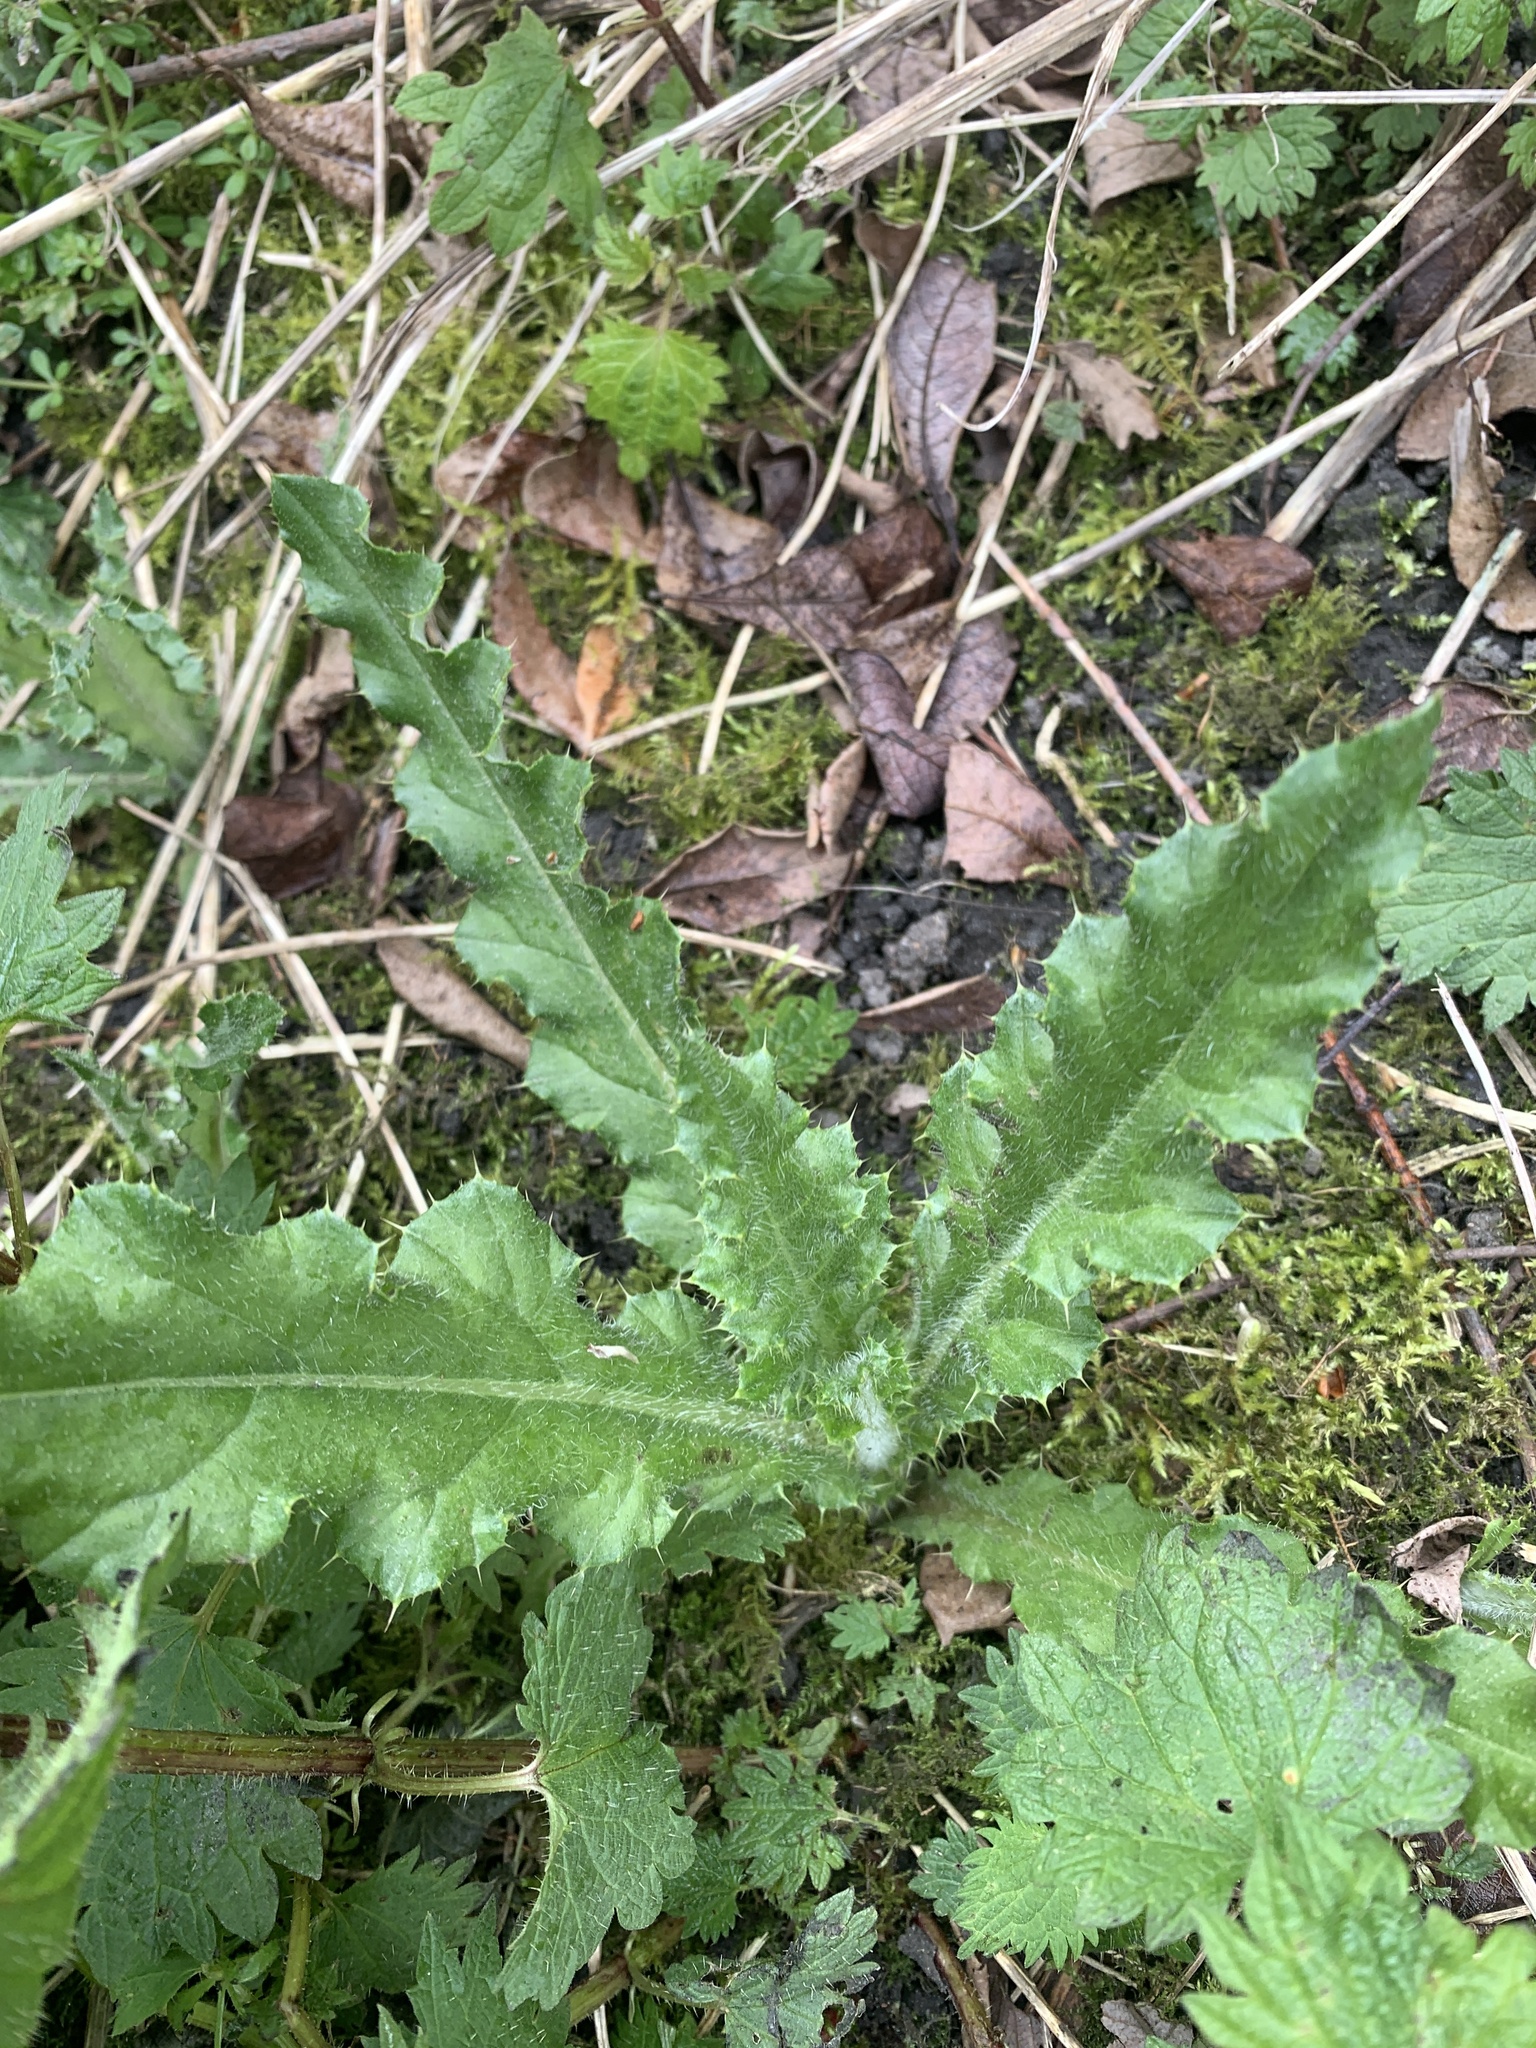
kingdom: Plantae
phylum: Tracheophyta
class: Magnoliopsida
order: Asterales
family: Asteraceae
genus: Cirsium
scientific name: Cirsium arvense
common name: Creeping thistle
